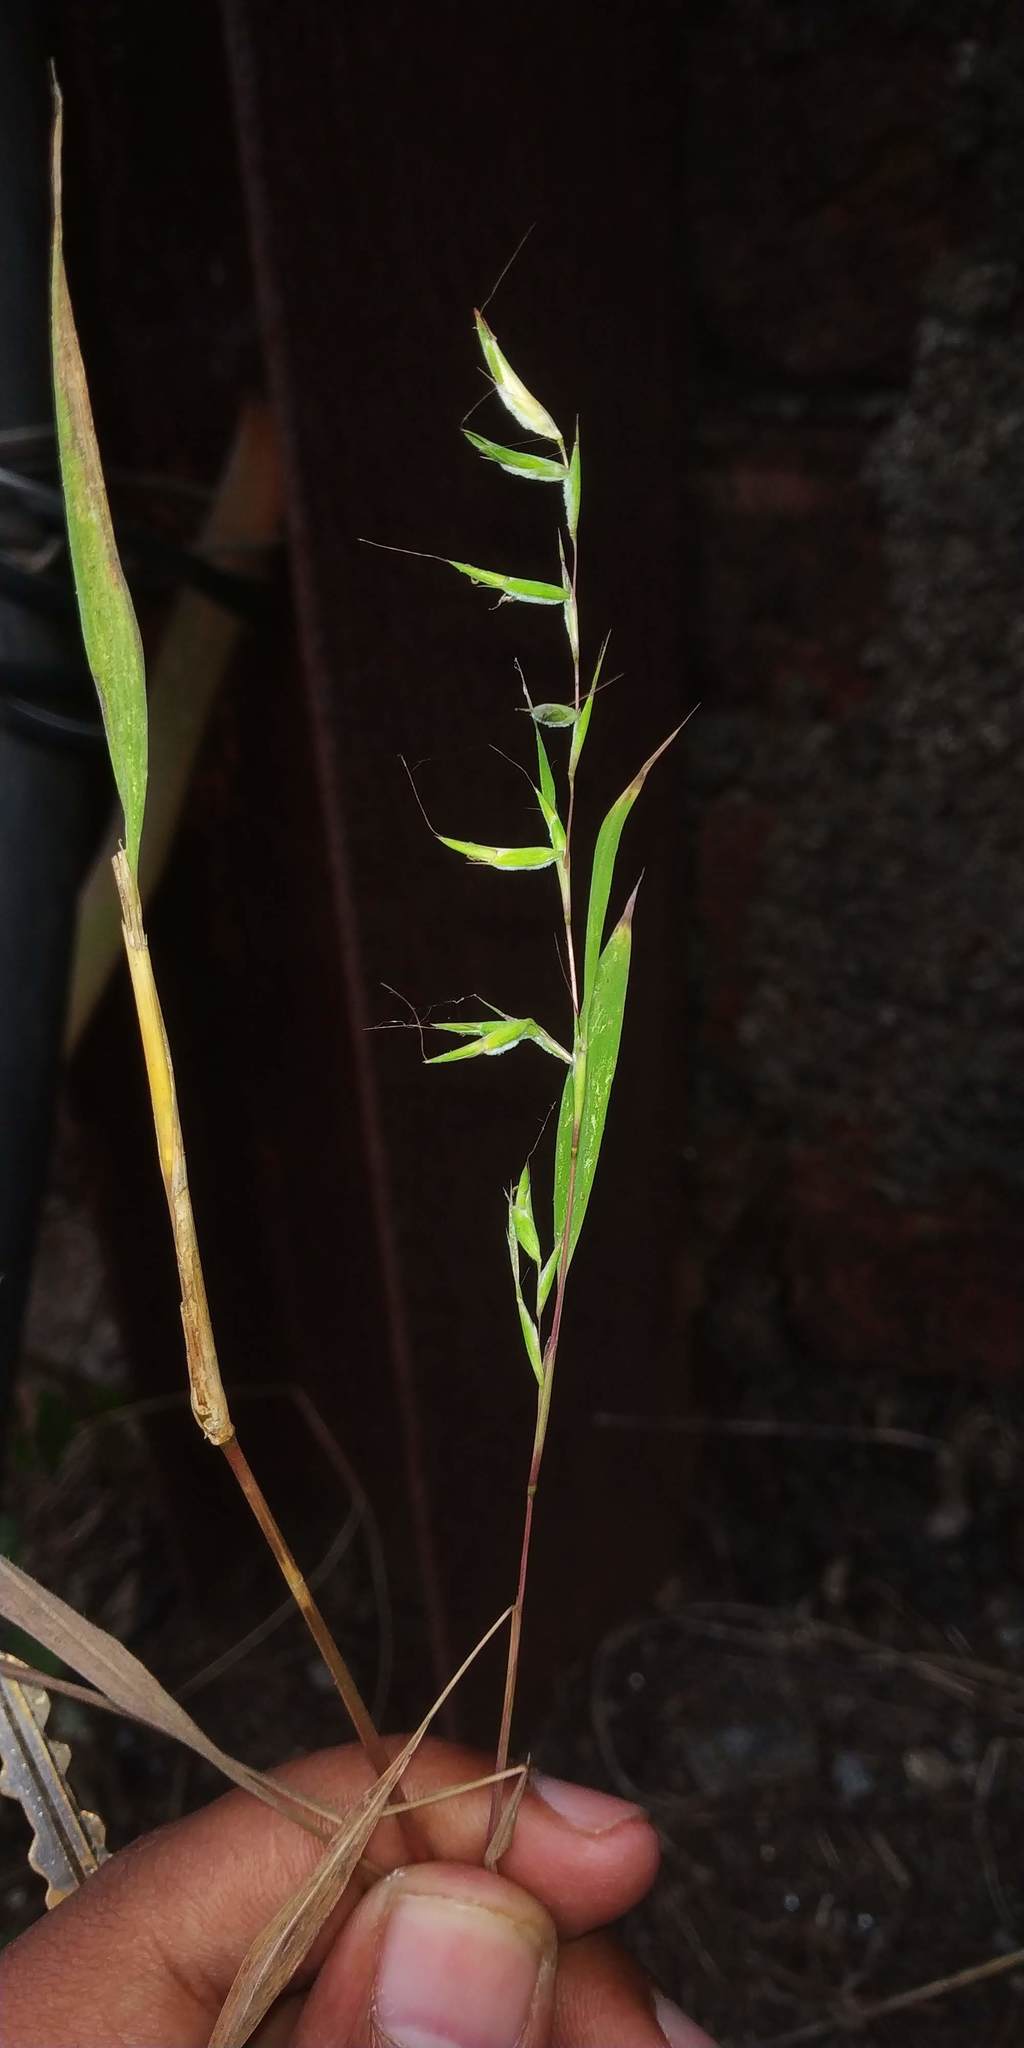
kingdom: Plantae
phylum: Tracheophyta
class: Liliopsida
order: Poales
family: Poaceae
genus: Apluda
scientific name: Apluda mutica
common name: Mauritian grass
